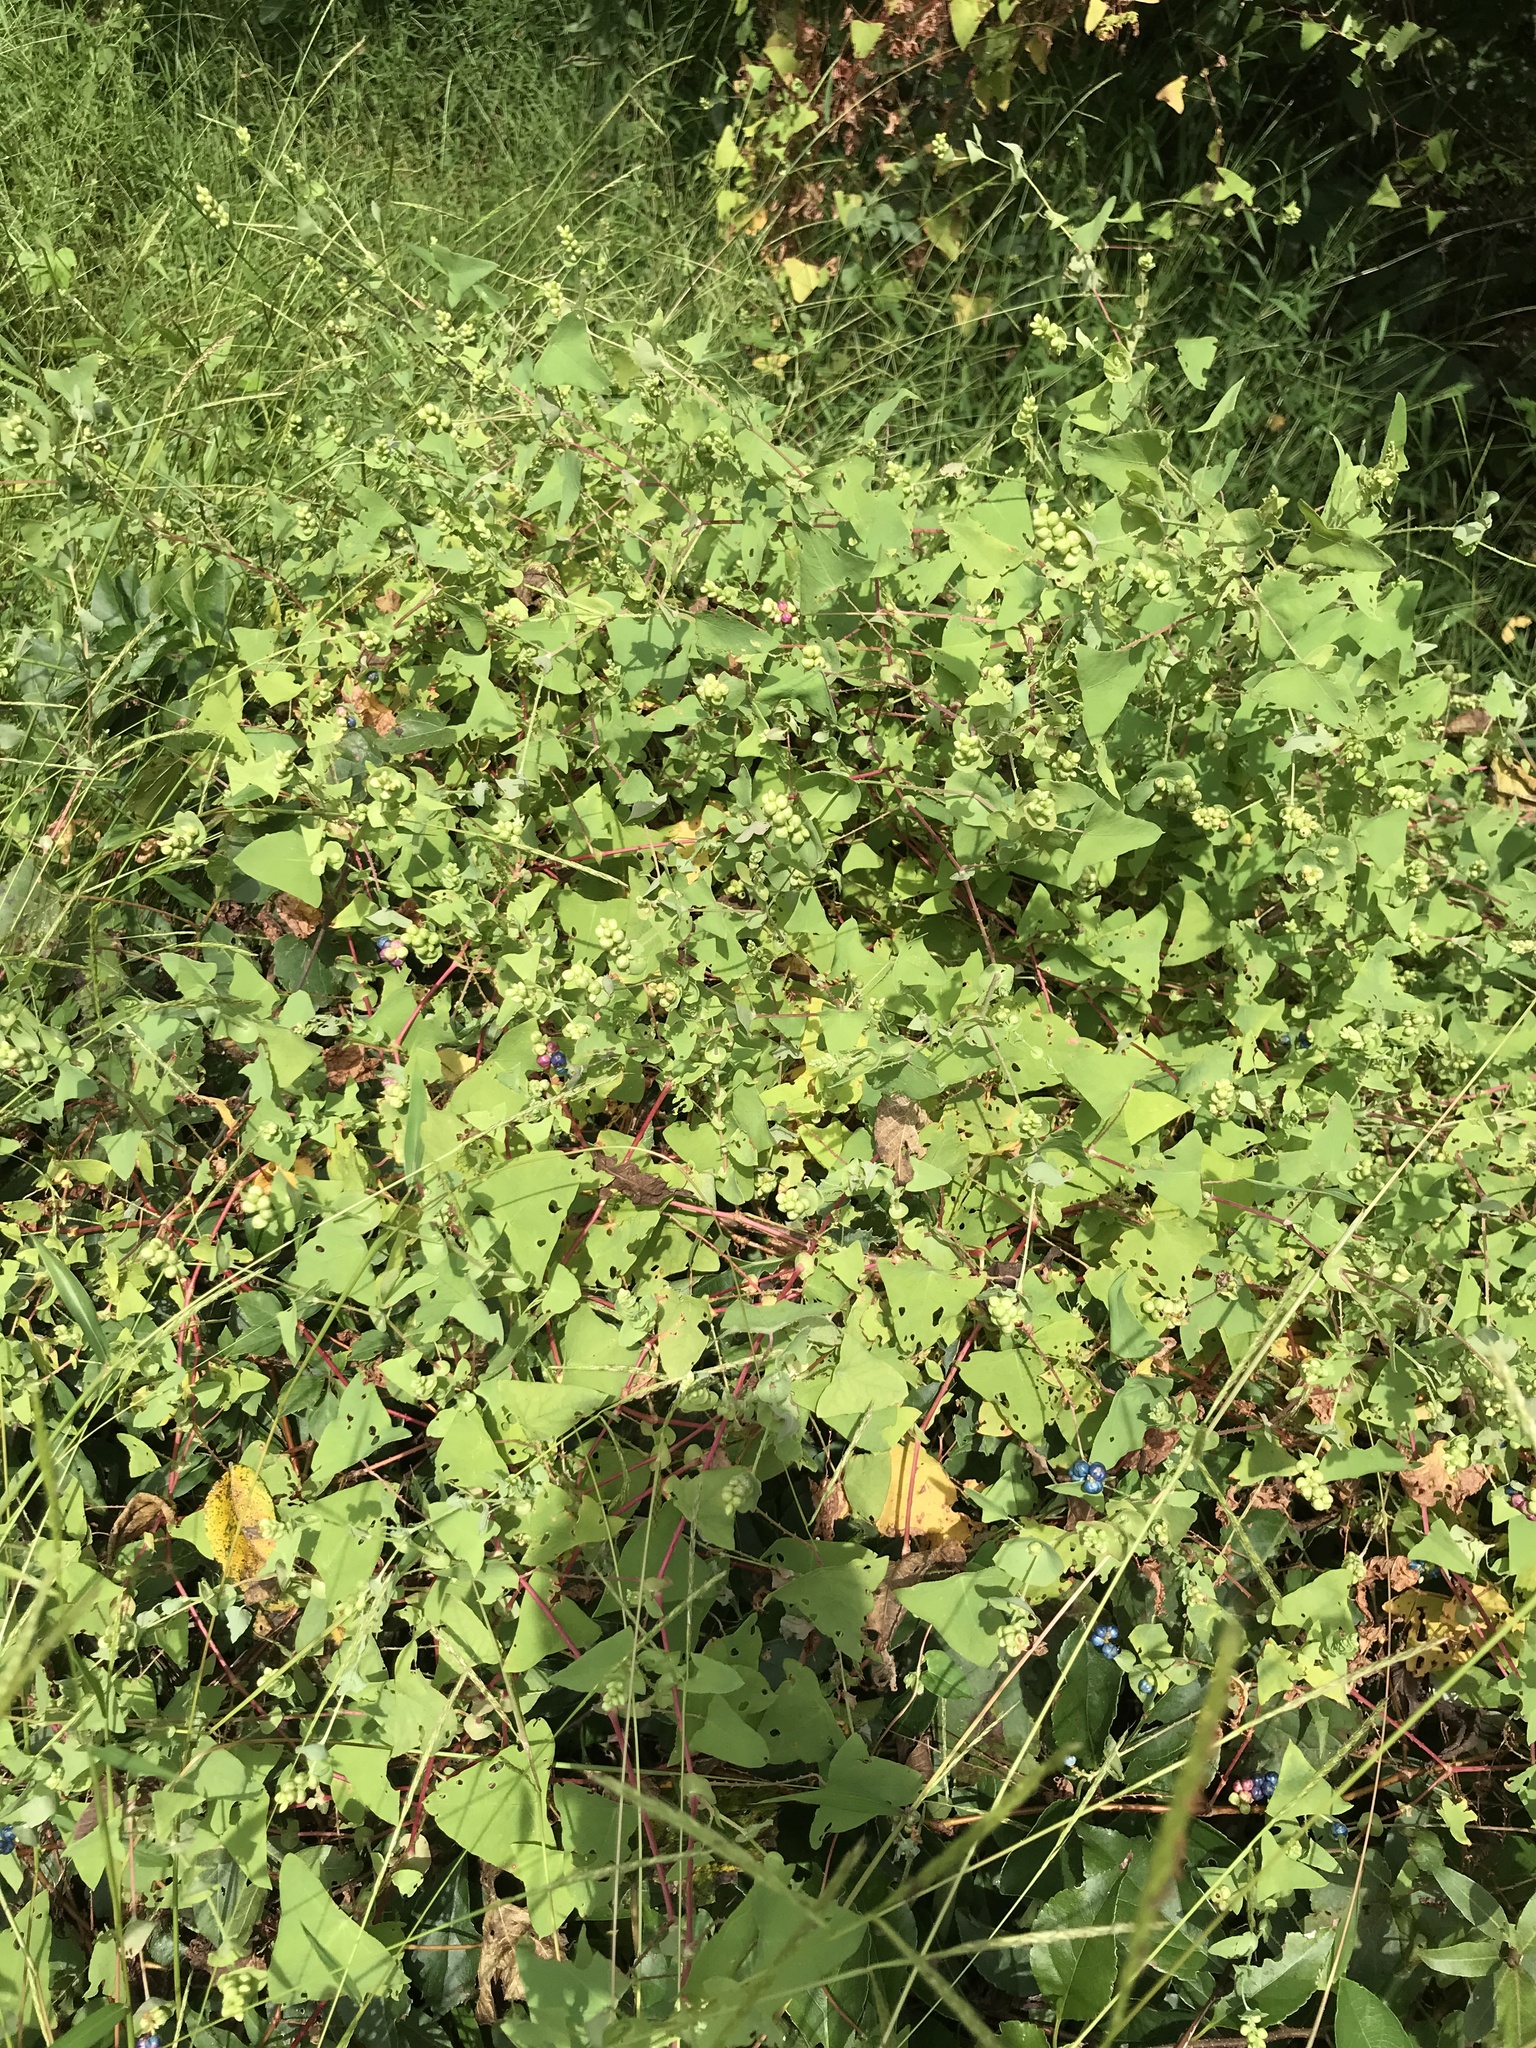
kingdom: Plantae
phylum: Tracheophyta
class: Magnoliopsida
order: Caryophyllales
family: Polygonaceae
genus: Persicaria
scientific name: Persicaria perfoliata
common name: Asiatic tearthumb
